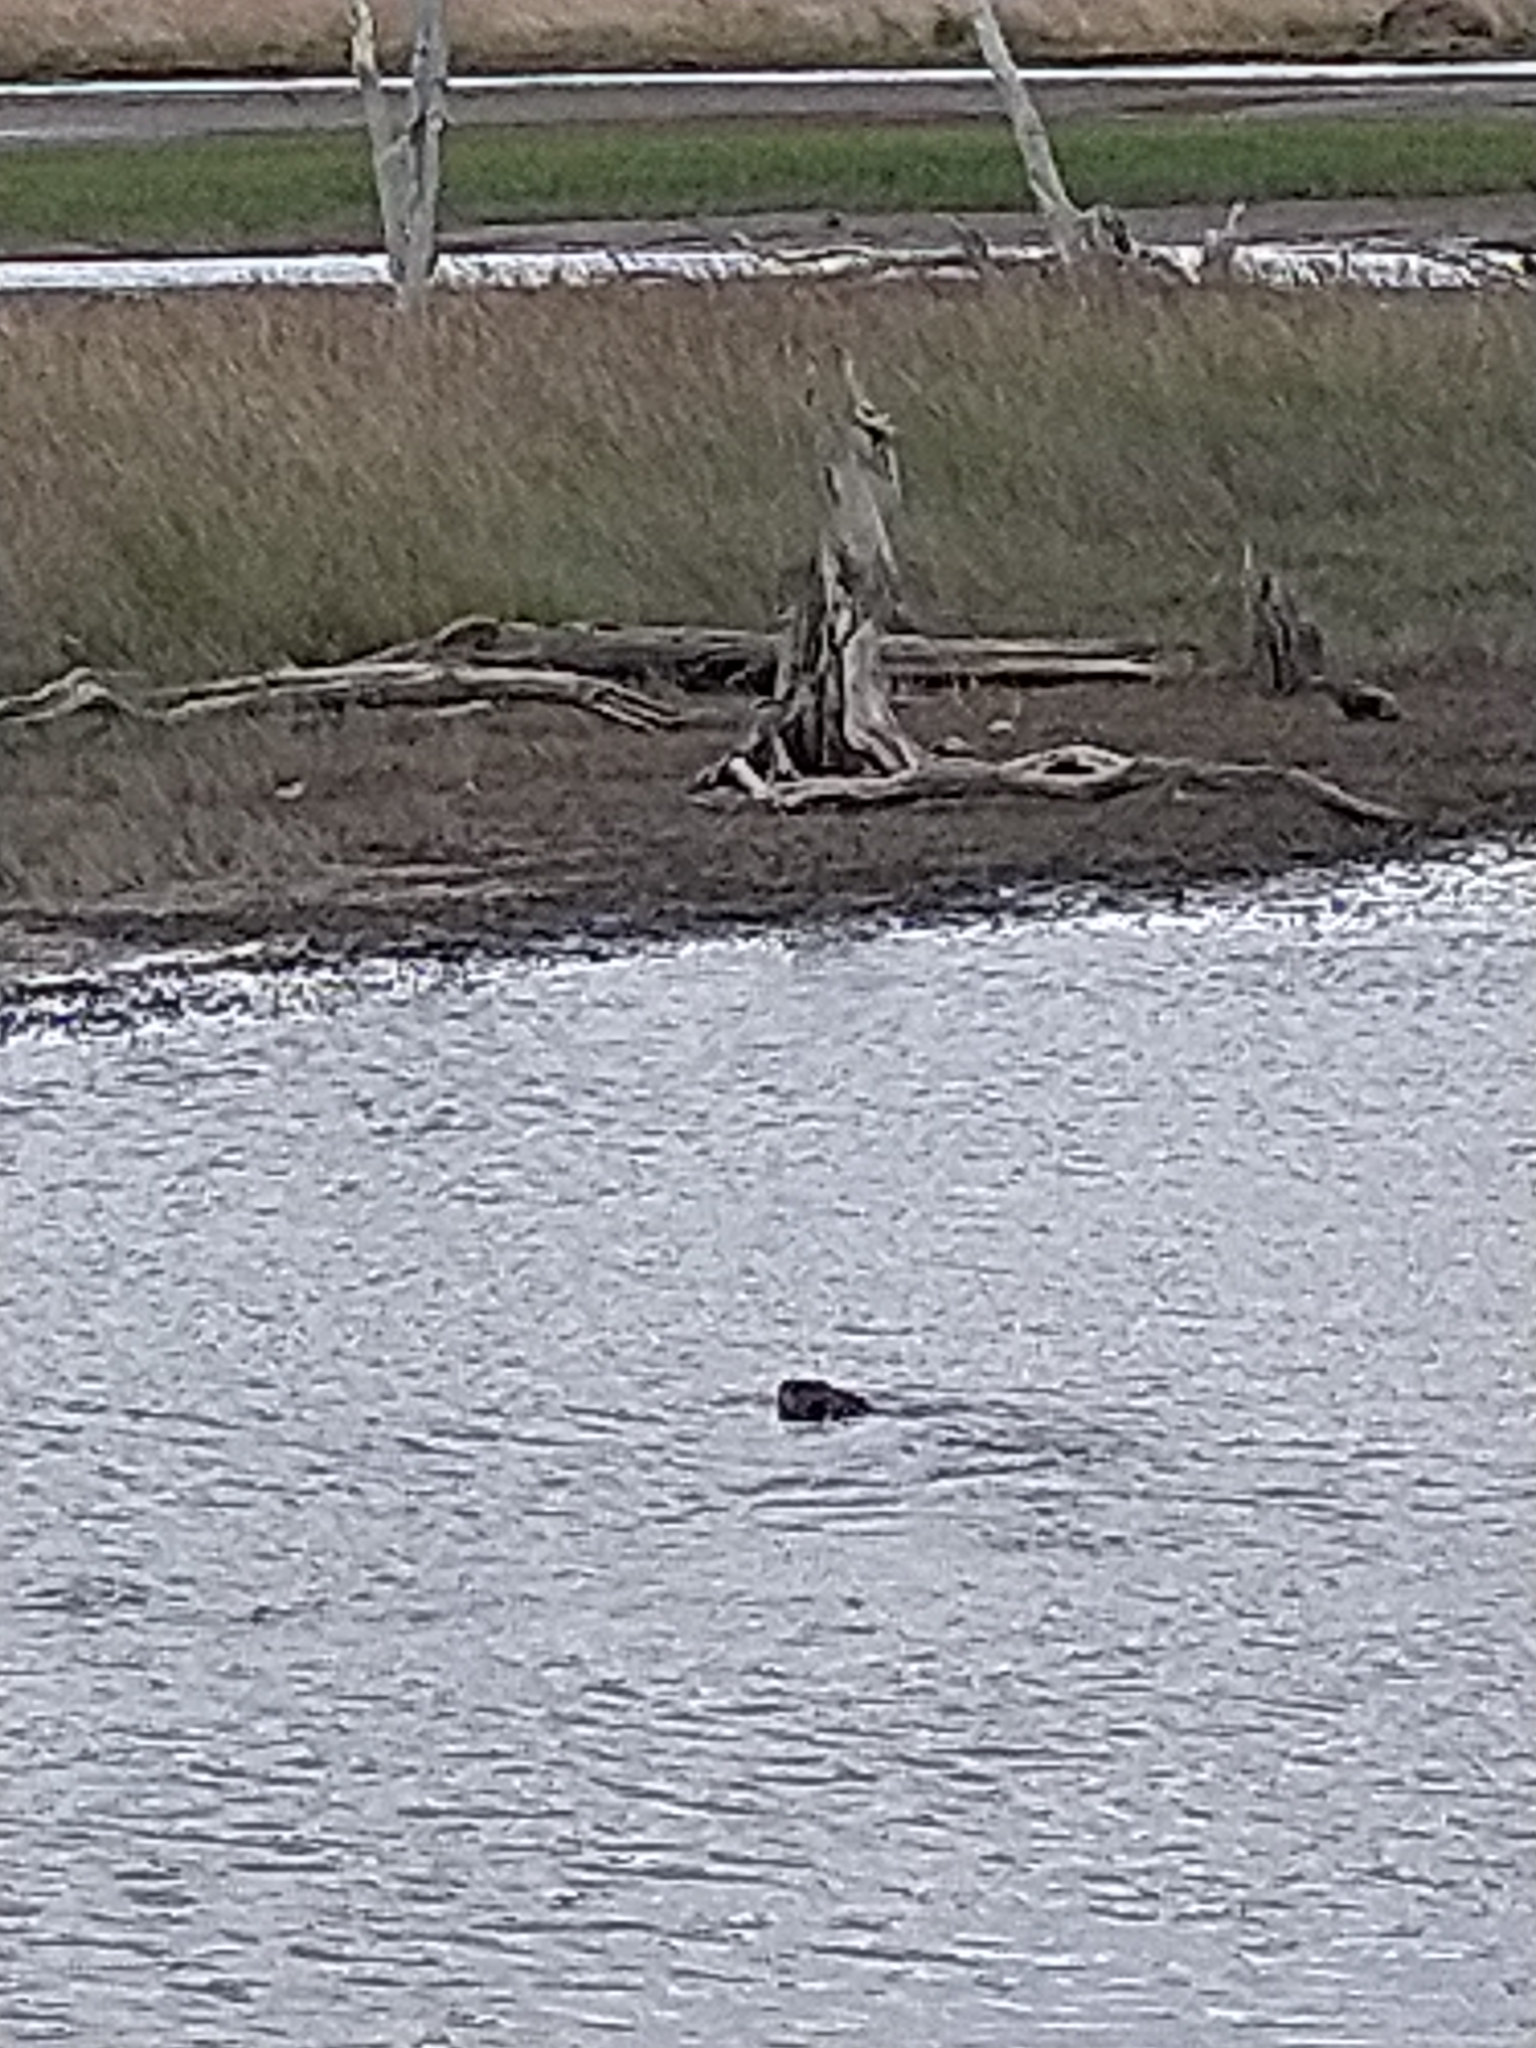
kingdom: Animalia
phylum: Chordata
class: Mammalia
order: Rodentia
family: Castoridae
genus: Castor
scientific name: Castor canadensis
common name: American beaver
